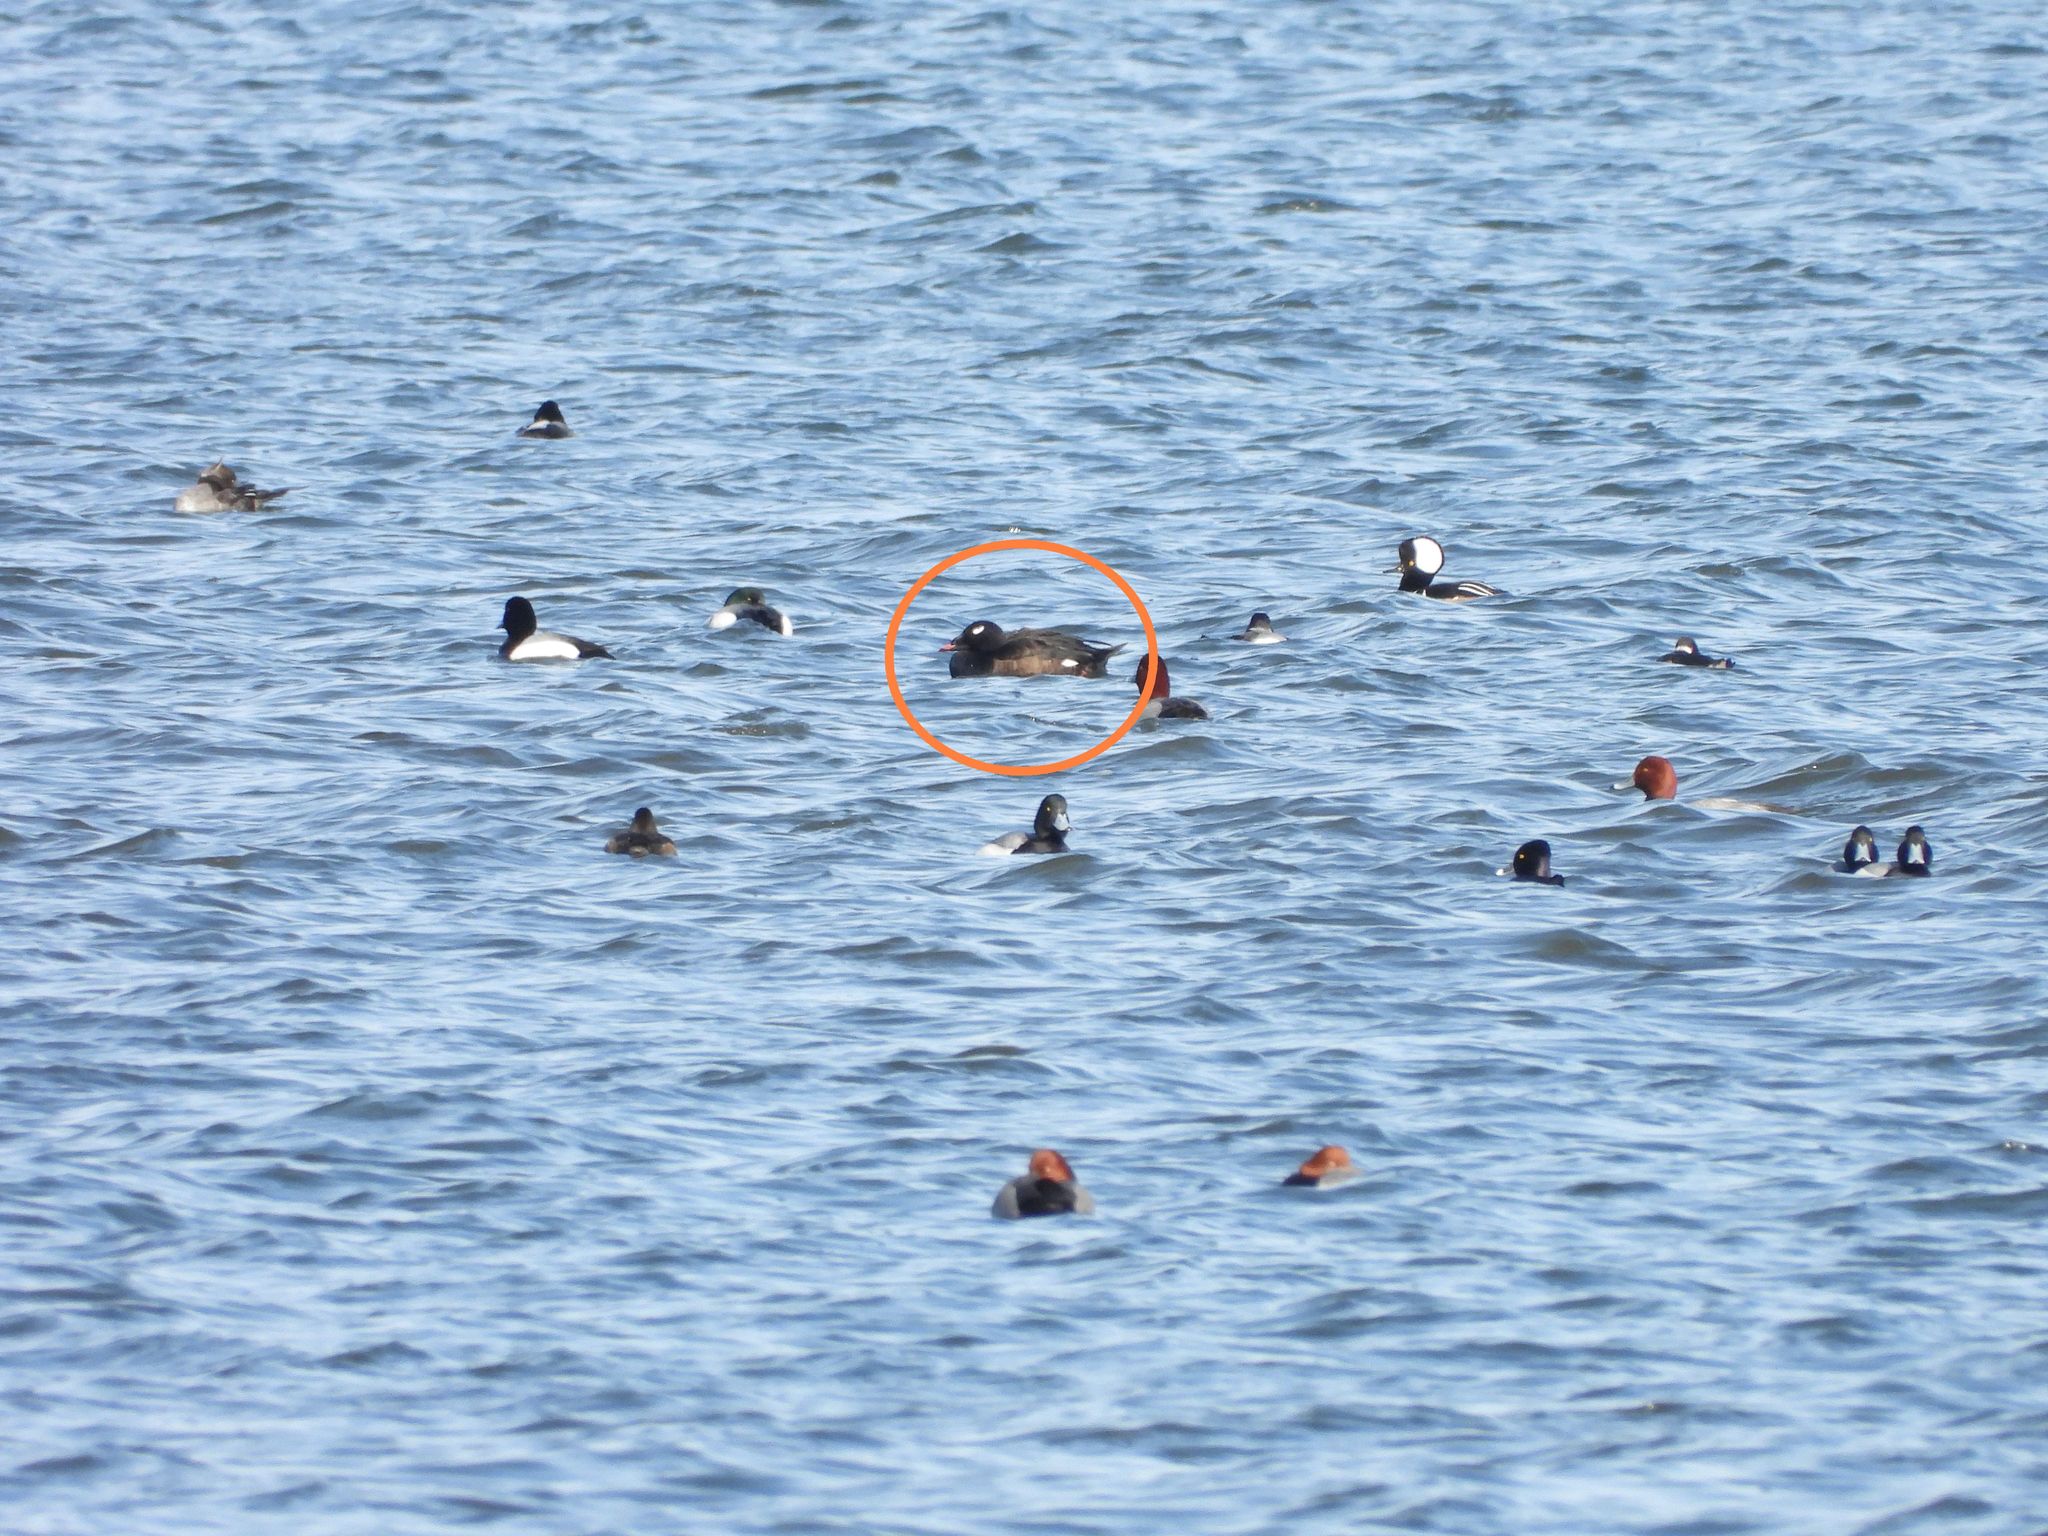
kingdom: Animalia
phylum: Chordata
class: Aves
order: Anseriformes
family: Anatidae
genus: Melanitta
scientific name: Melanitta deglandi
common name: White-winged scoter
